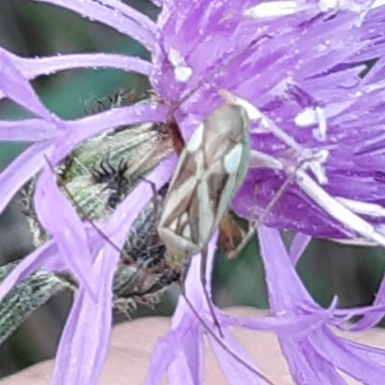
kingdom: Animalia
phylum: Arthropoda
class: Insecta
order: Hemiptera
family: Miridae
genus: Adelphocoris
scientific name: Adelphocoris lineolatus
